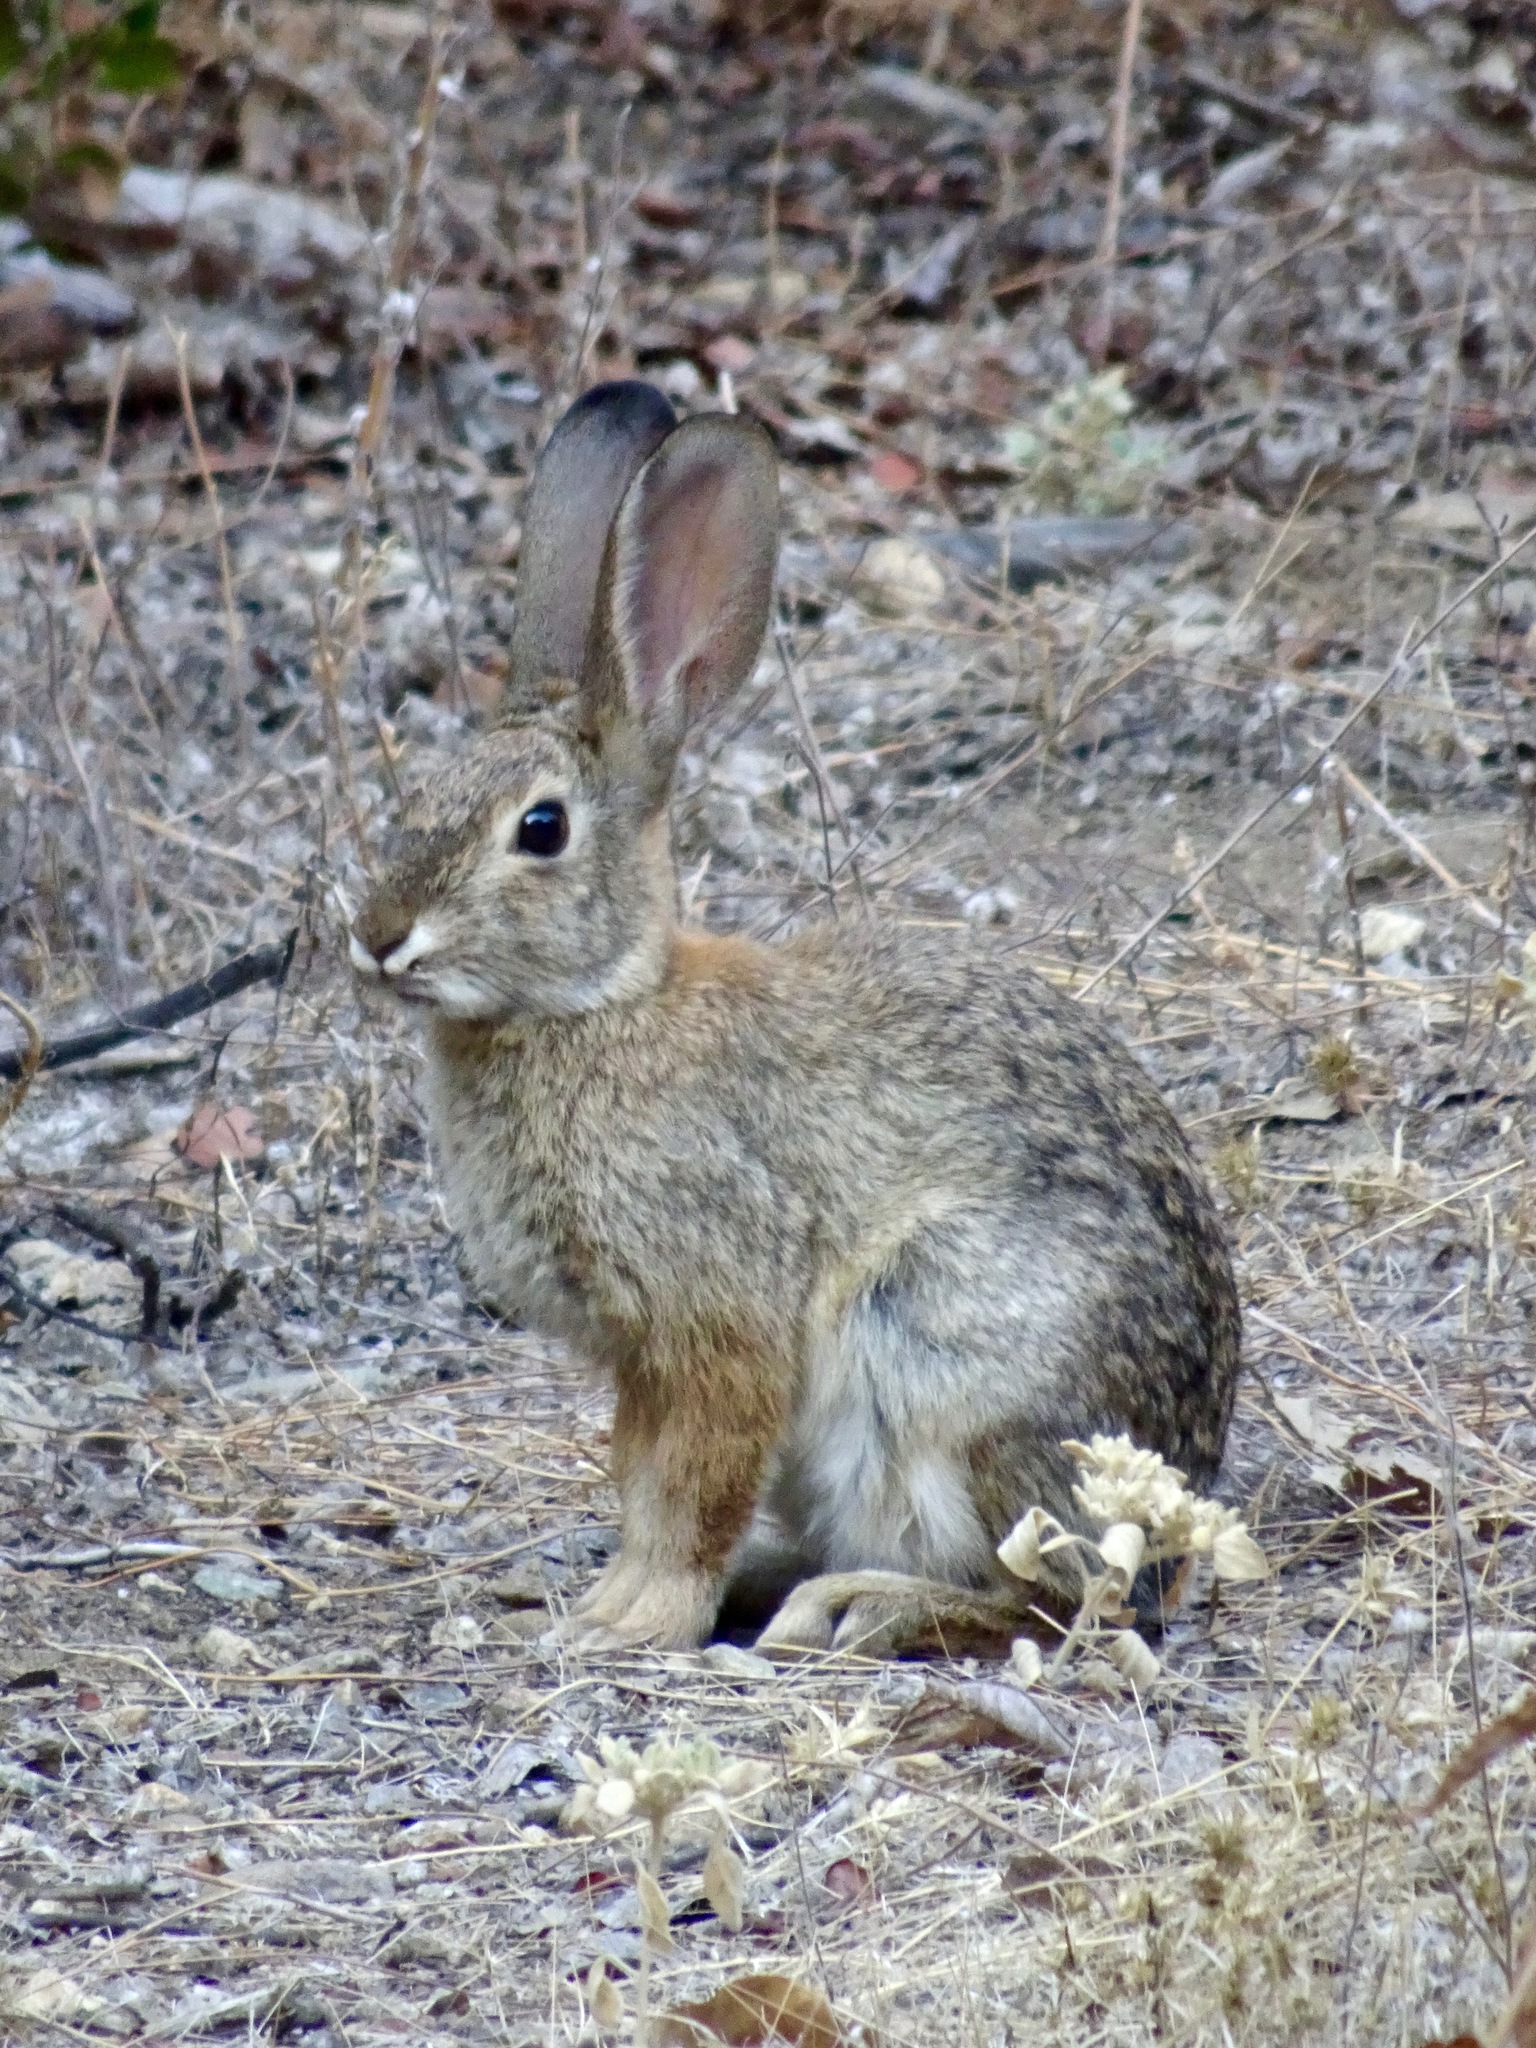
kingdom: Animalia
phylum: Chordata
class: Mammalia
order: Lagomorpha
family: Leporidae
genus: Sylvilagus
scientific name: Sylvilagus audubonii
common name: Desert cottontail
